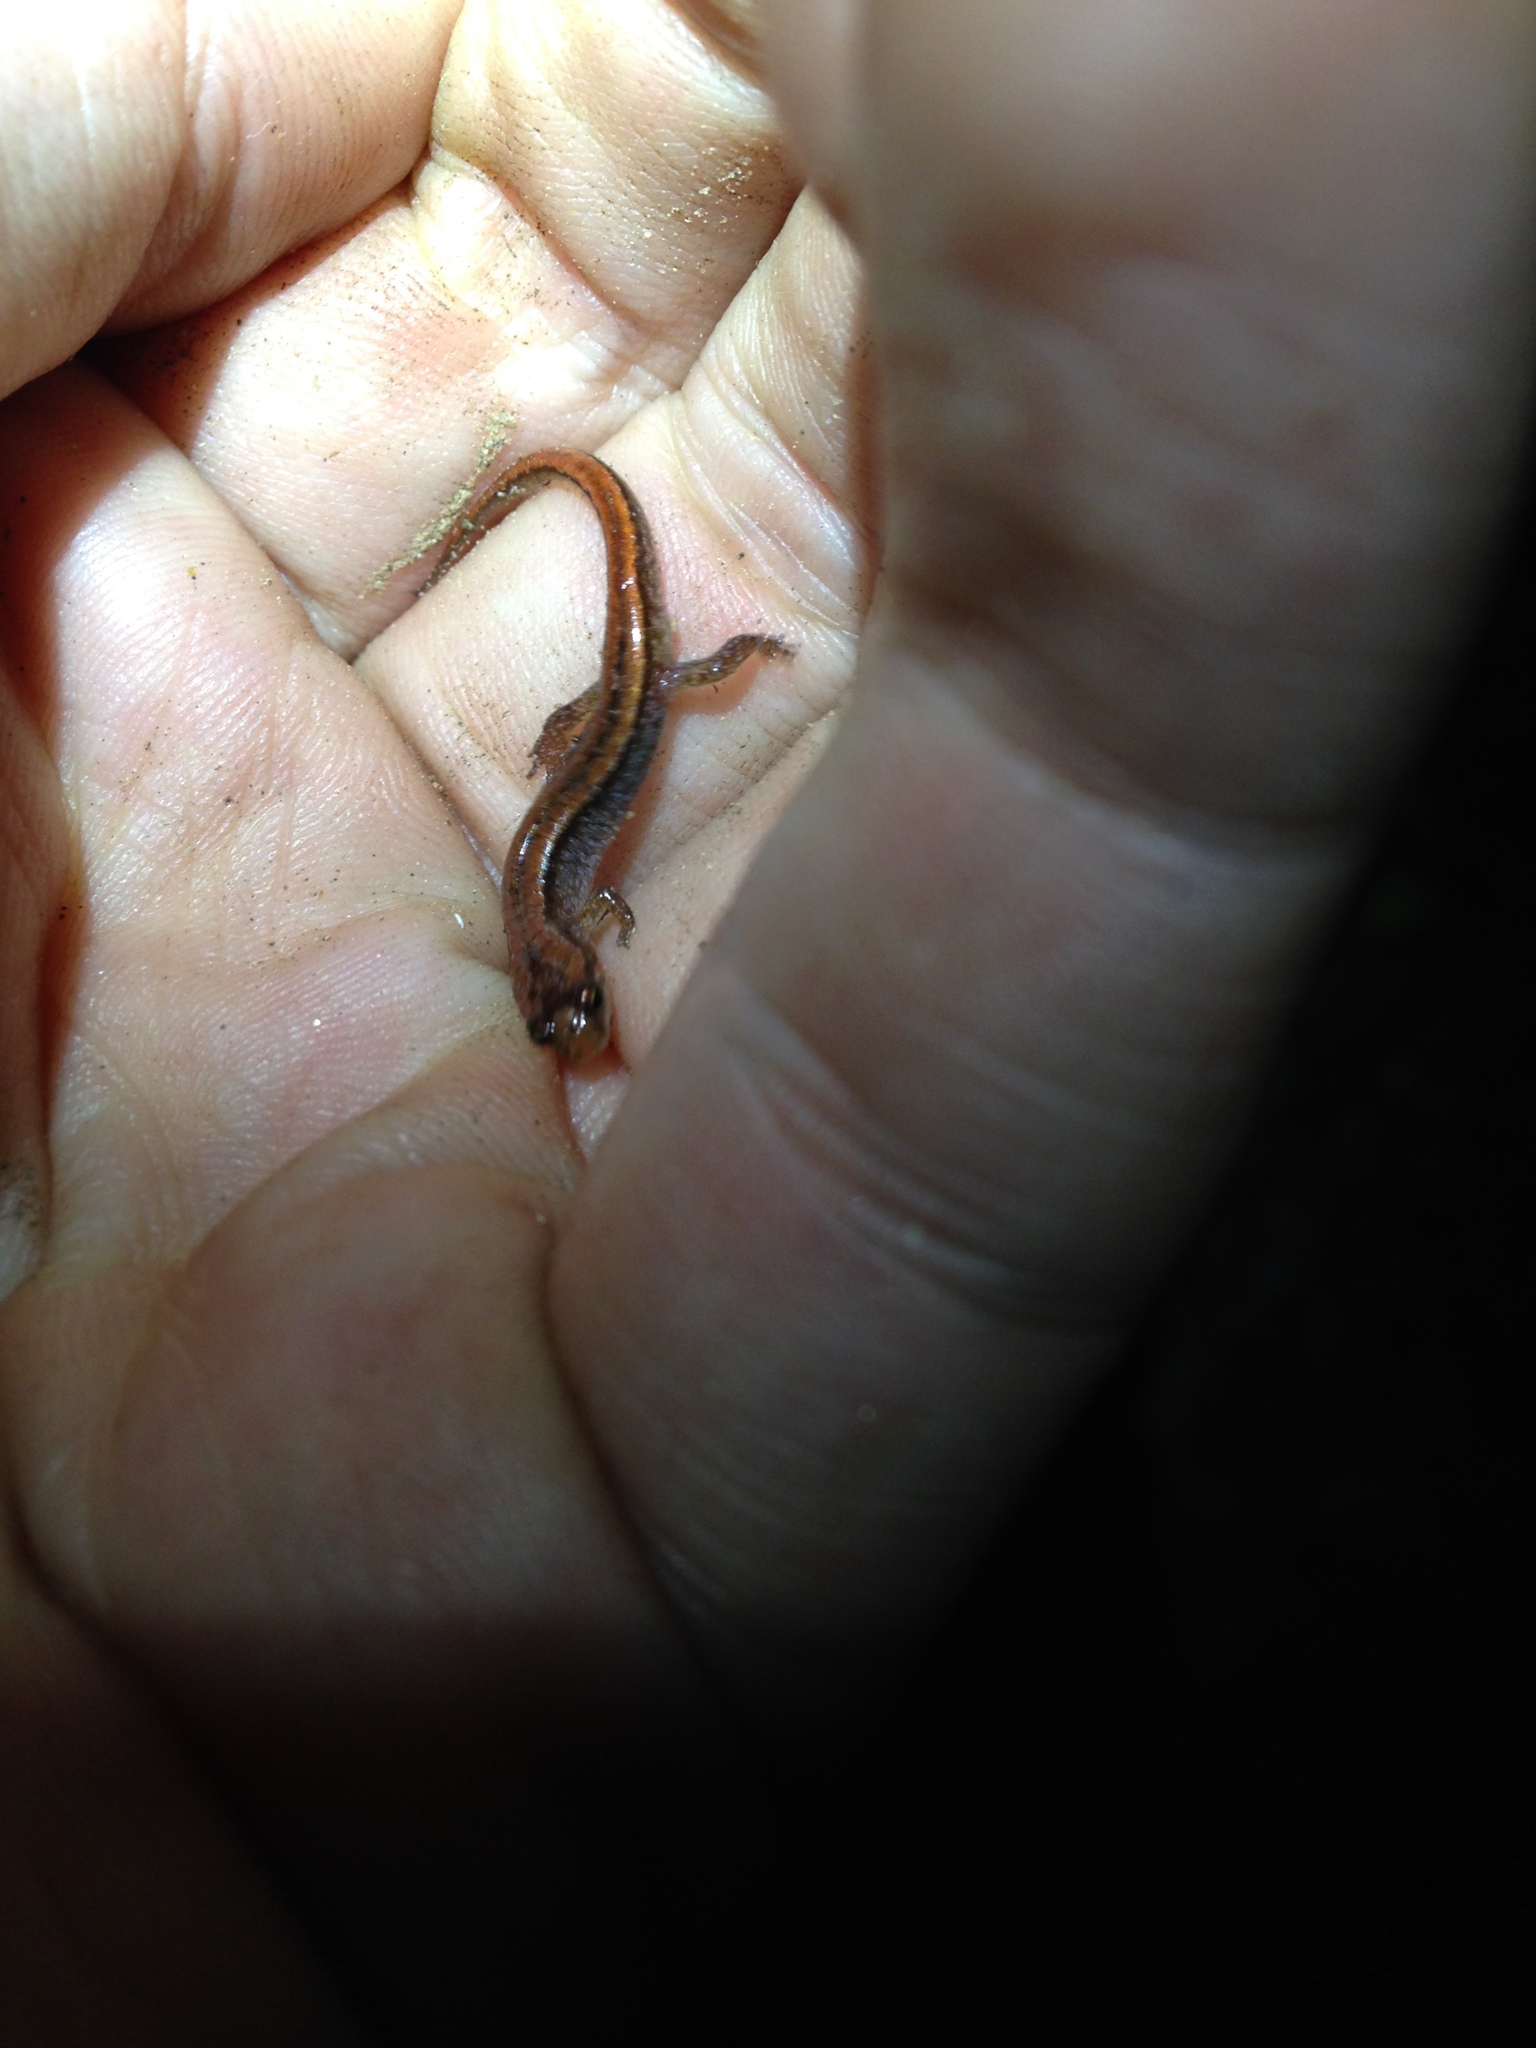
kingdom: Animalia
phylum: Chordata
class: Amphibia
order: Caudata
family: Plethodontidae
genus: Desmognathus
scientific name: Desmognathus aeneus
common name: Seepage salamander
